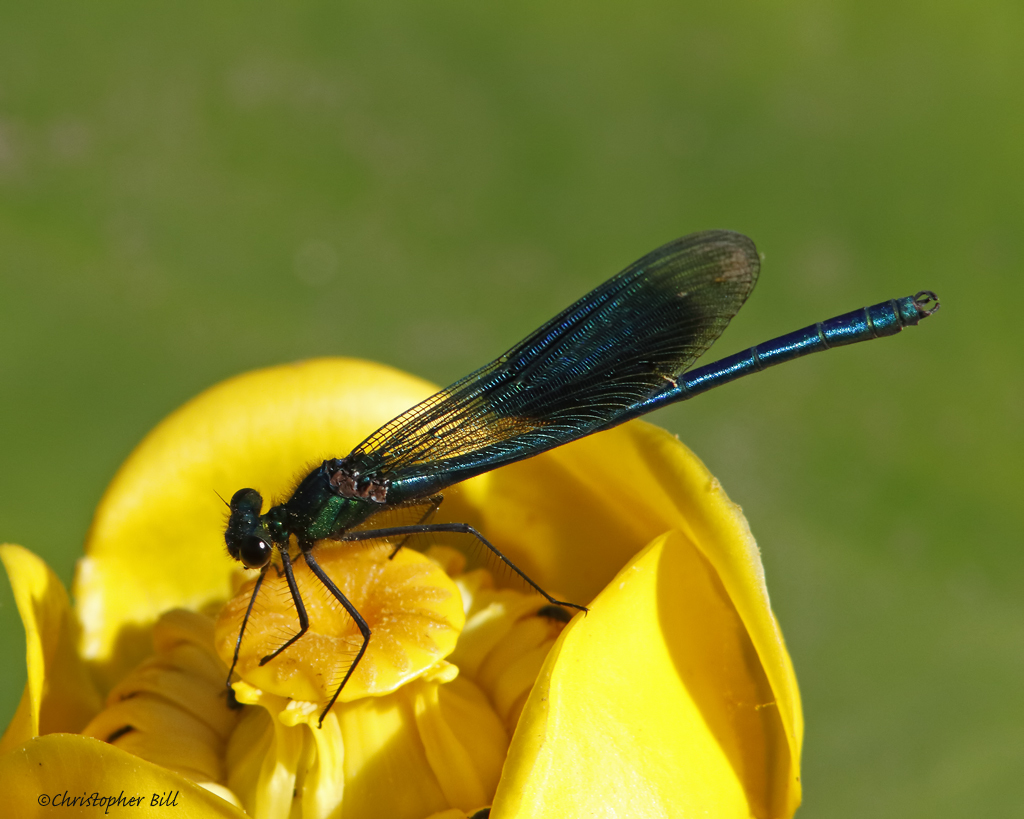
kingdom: Animalia
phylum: Arthropoda
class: Insecta
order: Odonata
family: Calopterygidae
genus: Calopteryx
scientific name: Calopteryx splendens
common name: Banded demoiselle
